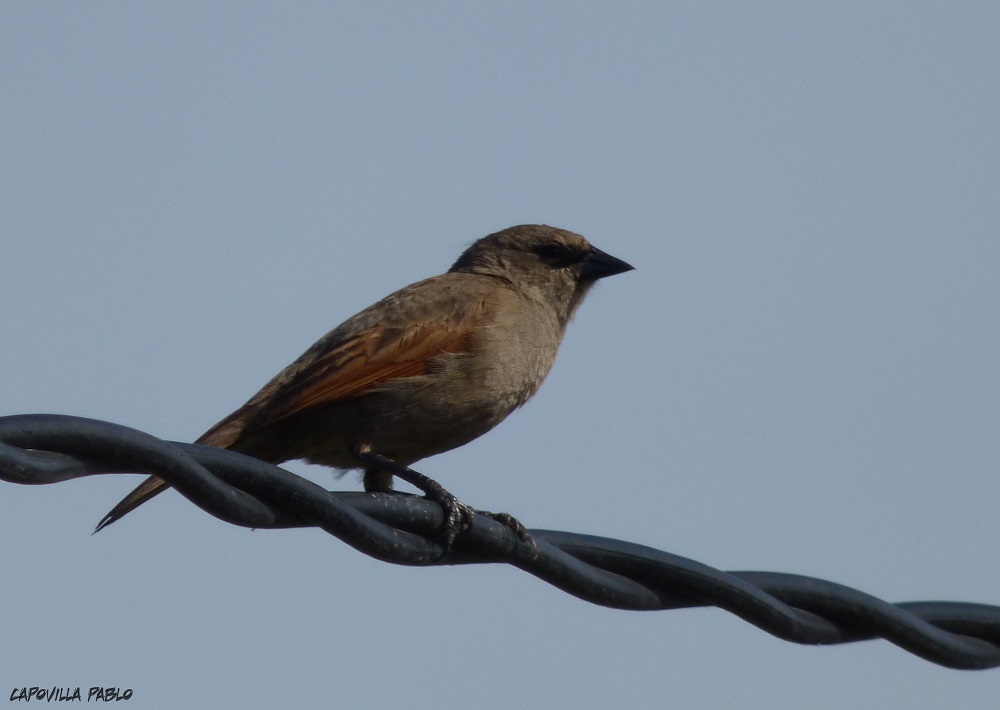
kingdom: Animalia
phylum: Chordata
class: Aves
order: Passeriformes
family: Icteridae
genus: Agelaioides
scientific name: Agelaioides badius
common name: Baywing
